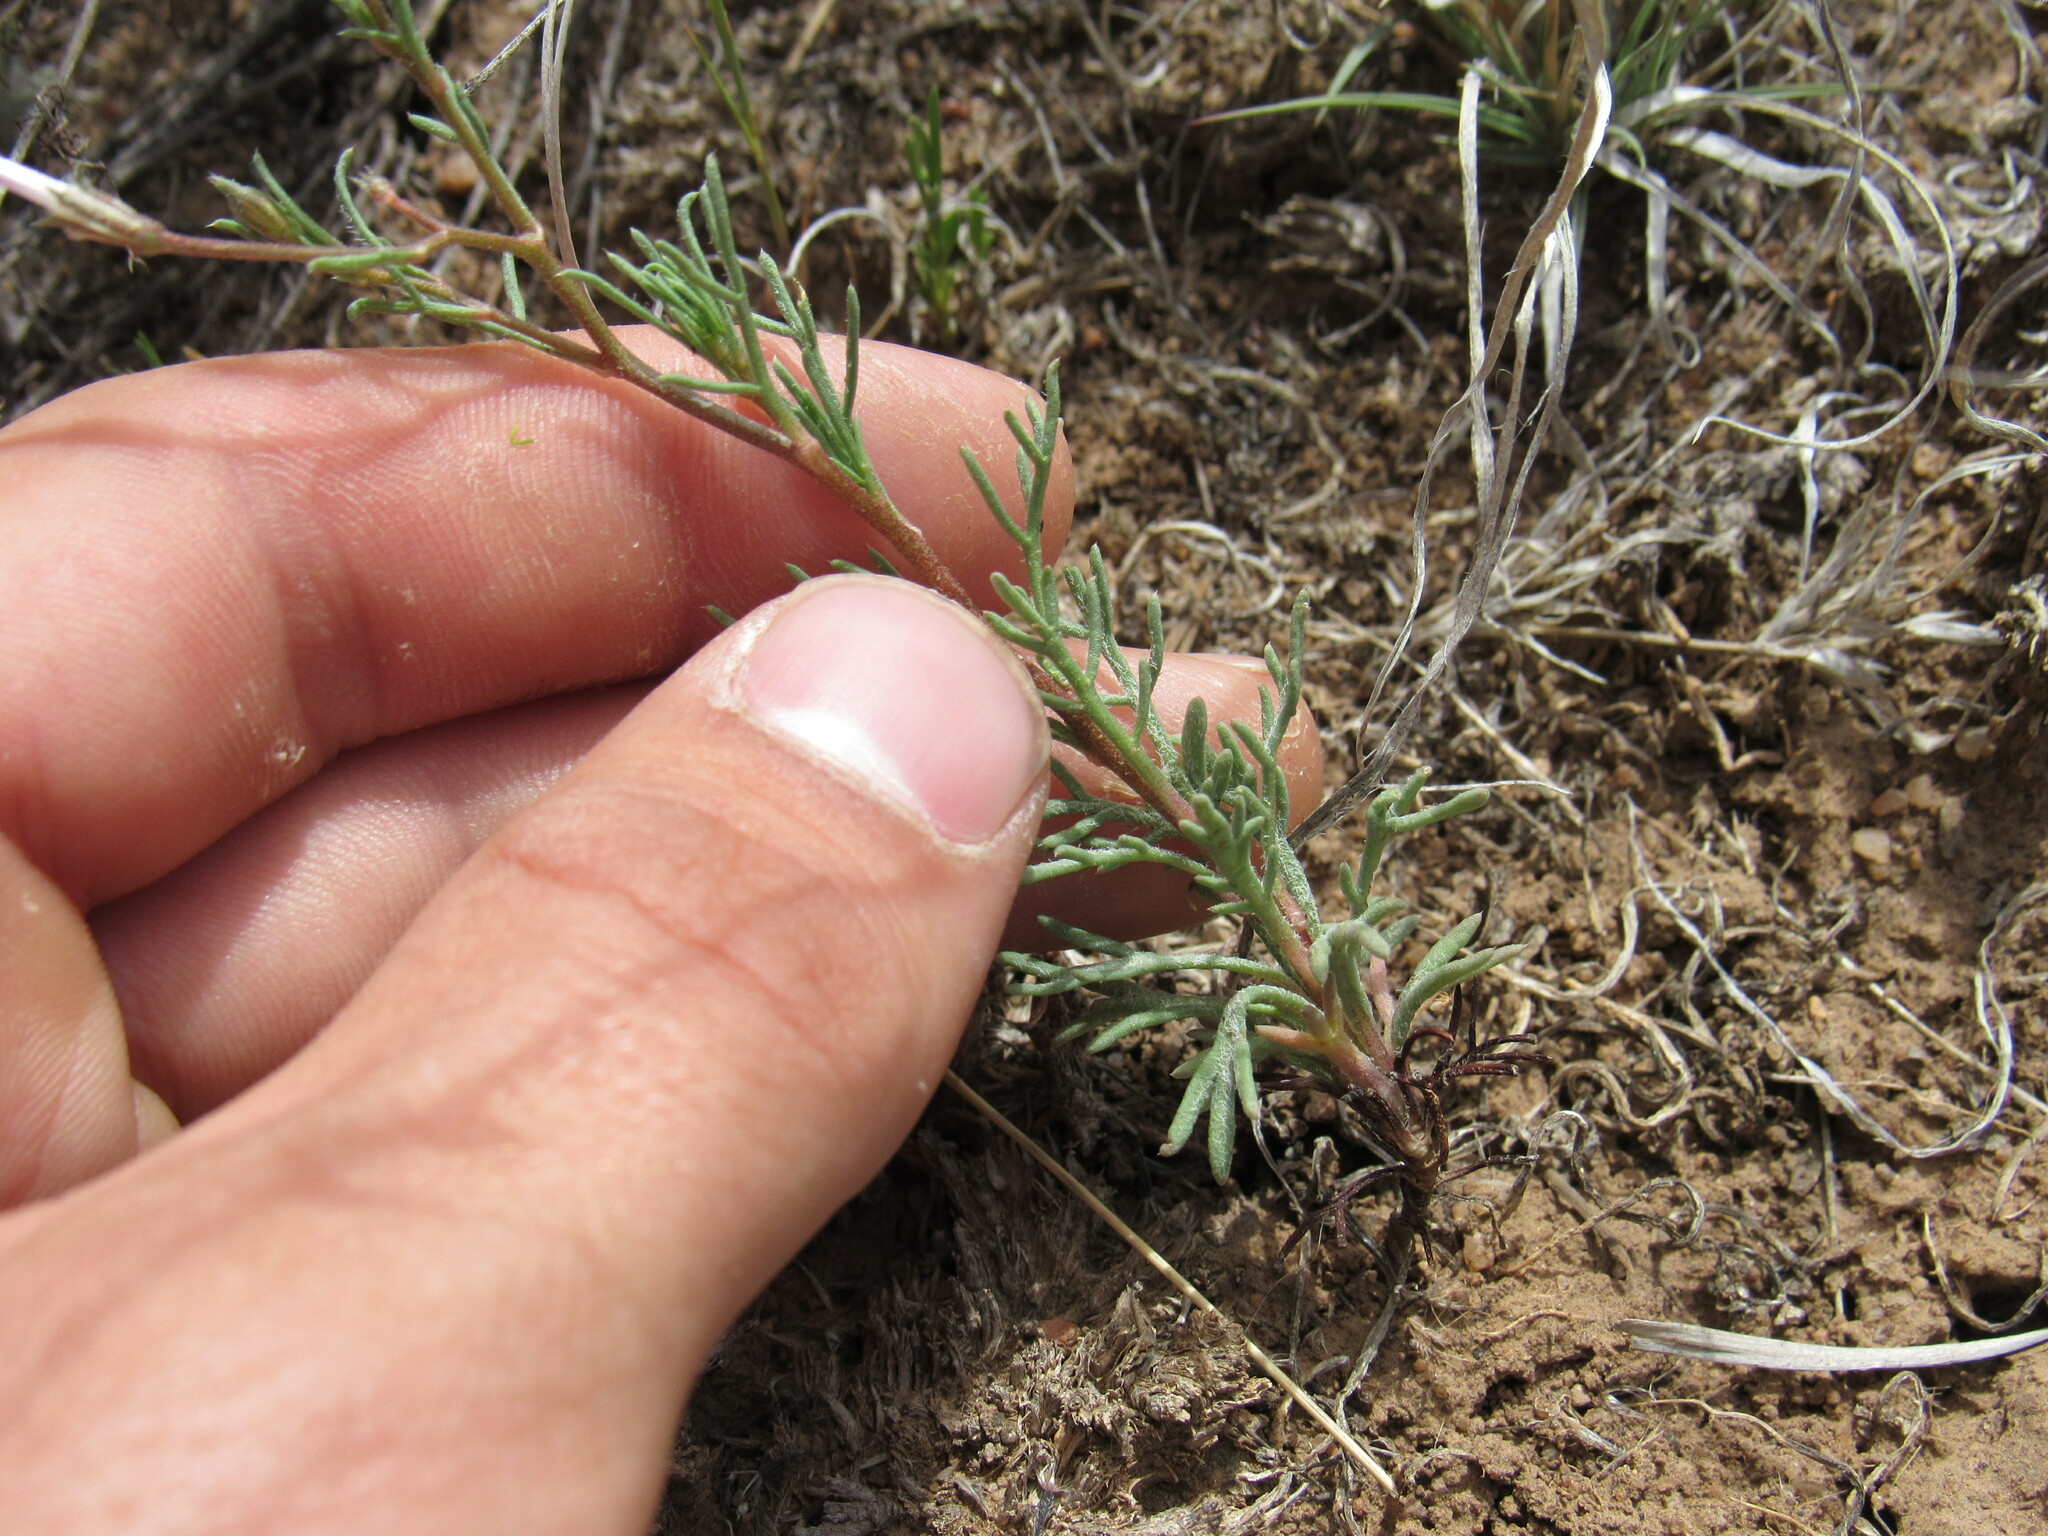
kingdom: Plantae
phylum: Tracheophyta
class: Magnoliopsida
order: Ericales
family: Polemoniaceae
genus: Ipomopsis
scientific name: Ipomopsis laxiflora
